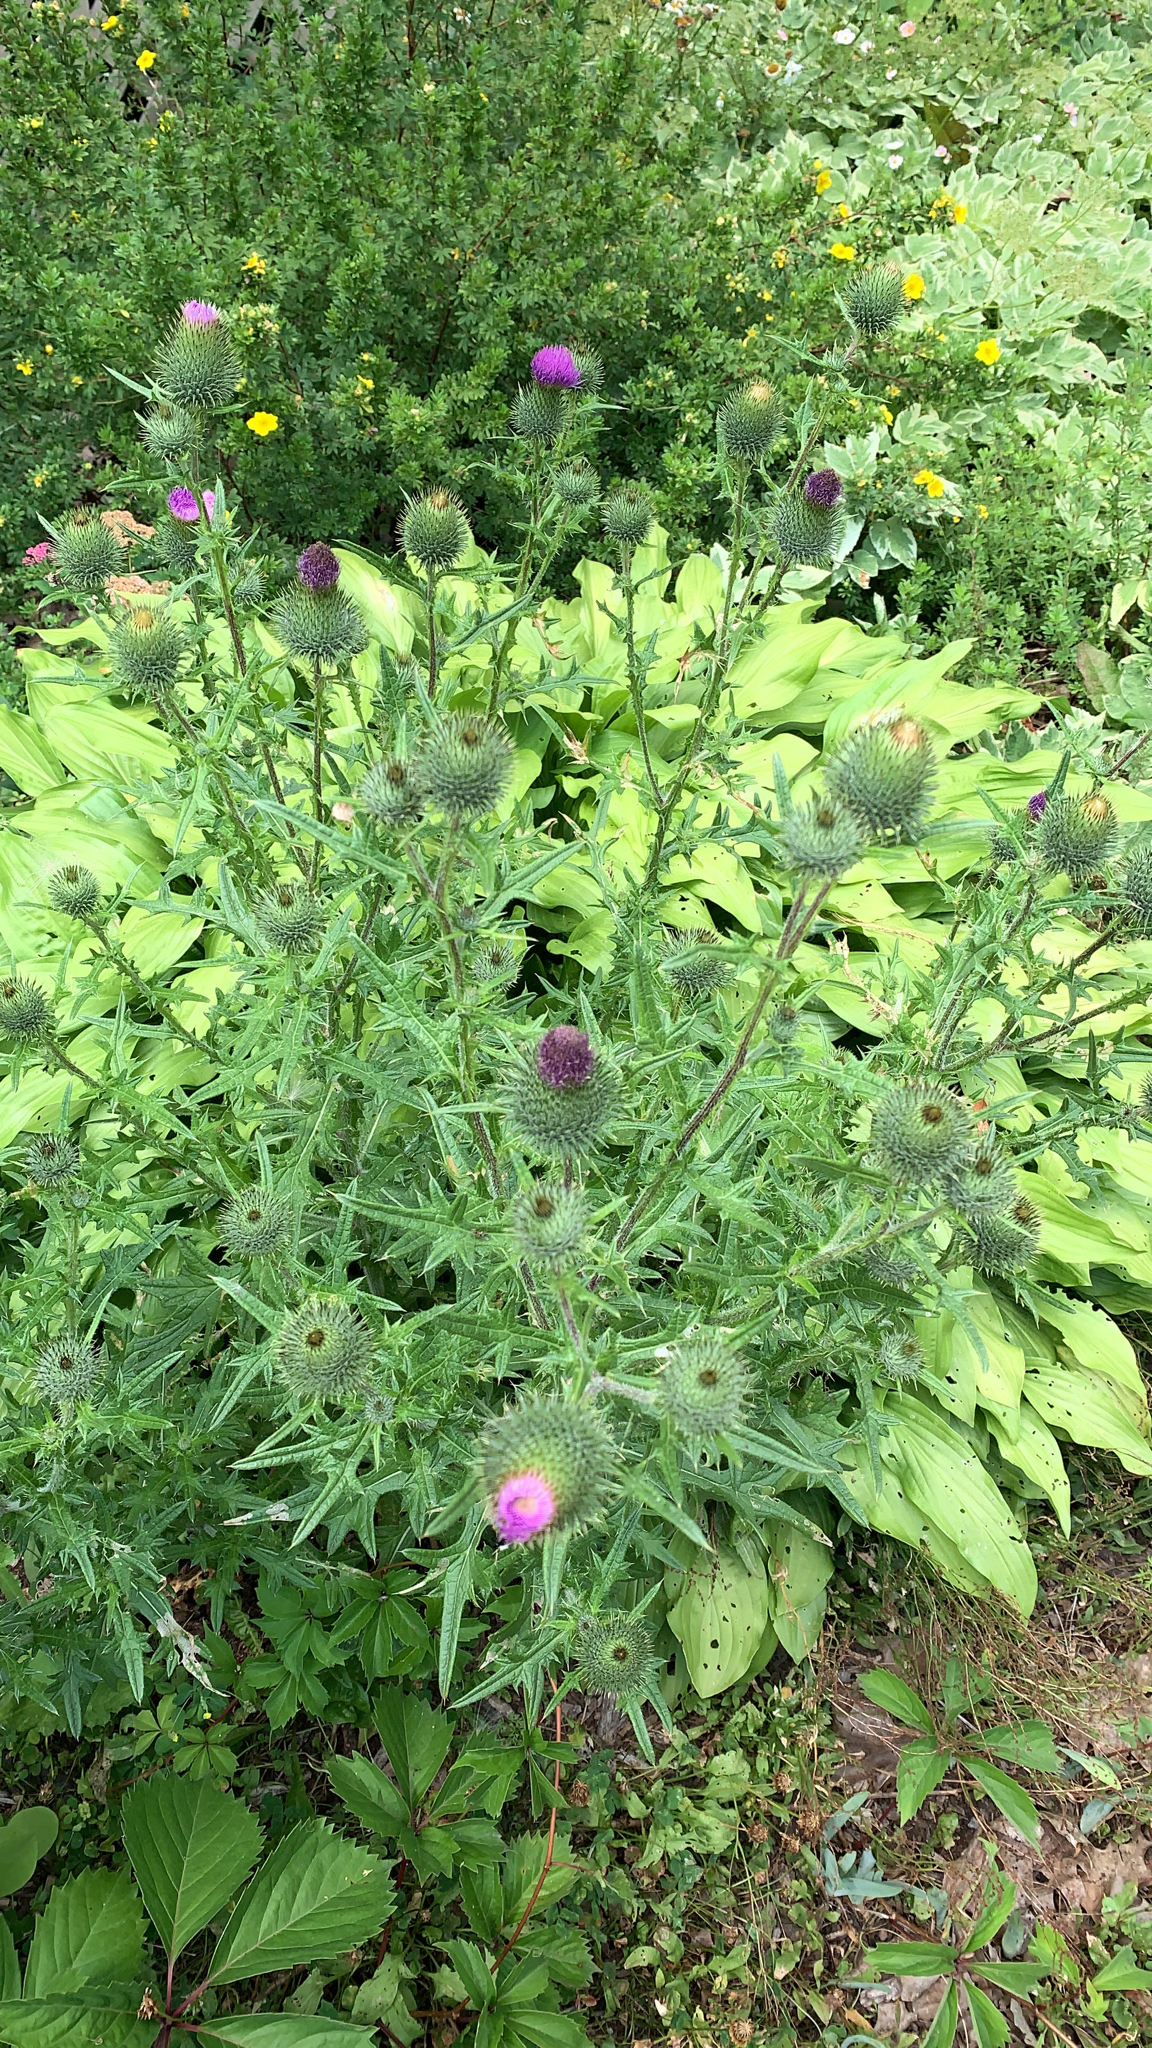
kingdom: Plantae
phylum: Tracheophyta
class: Magnoliopsida
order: Asterales
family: Asteraceae
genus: Cirsium
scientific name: Cirsium vulgare
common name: Bull thistle
